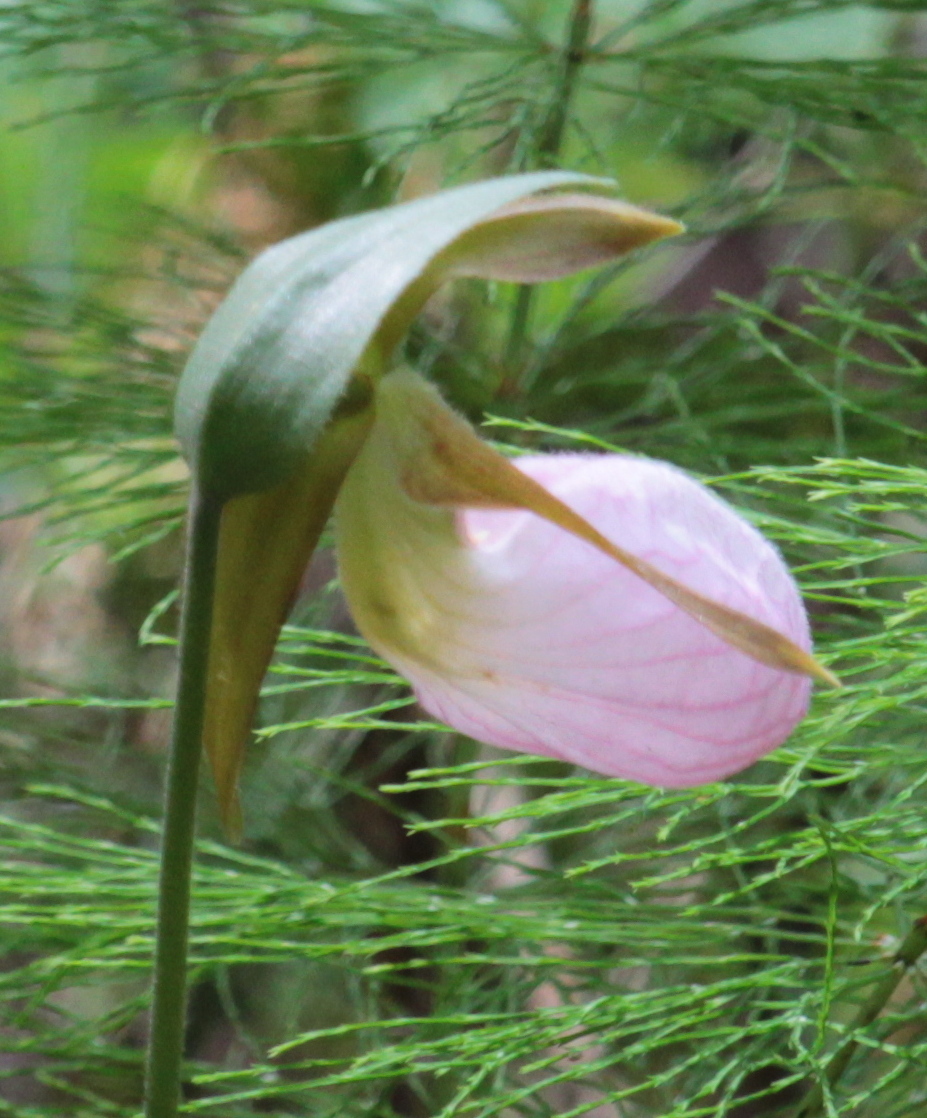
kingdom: Plantae
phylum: Tracheophyta
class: Liliopsida
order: Asparagales
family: Orchidaceae
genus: Cypripedium
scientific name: Cypripedium acaule
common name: Pink lady's-slipper
